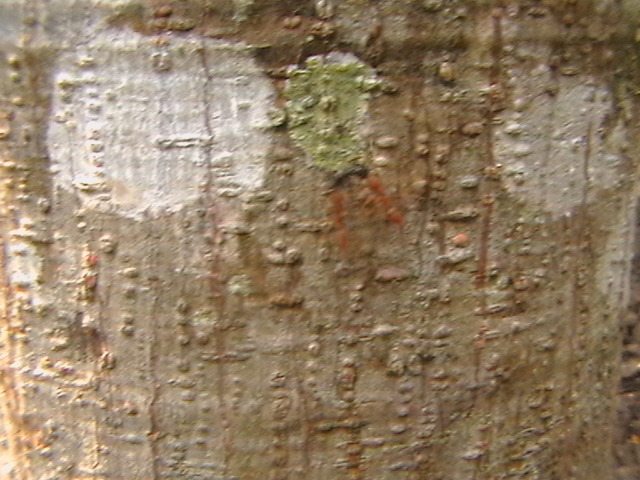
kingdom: Animalia
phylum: Arthropoda
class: Insecta
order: Hymenoptera
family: Formicidae
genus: Oecophylla
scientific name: Oecophylla smaragdina
